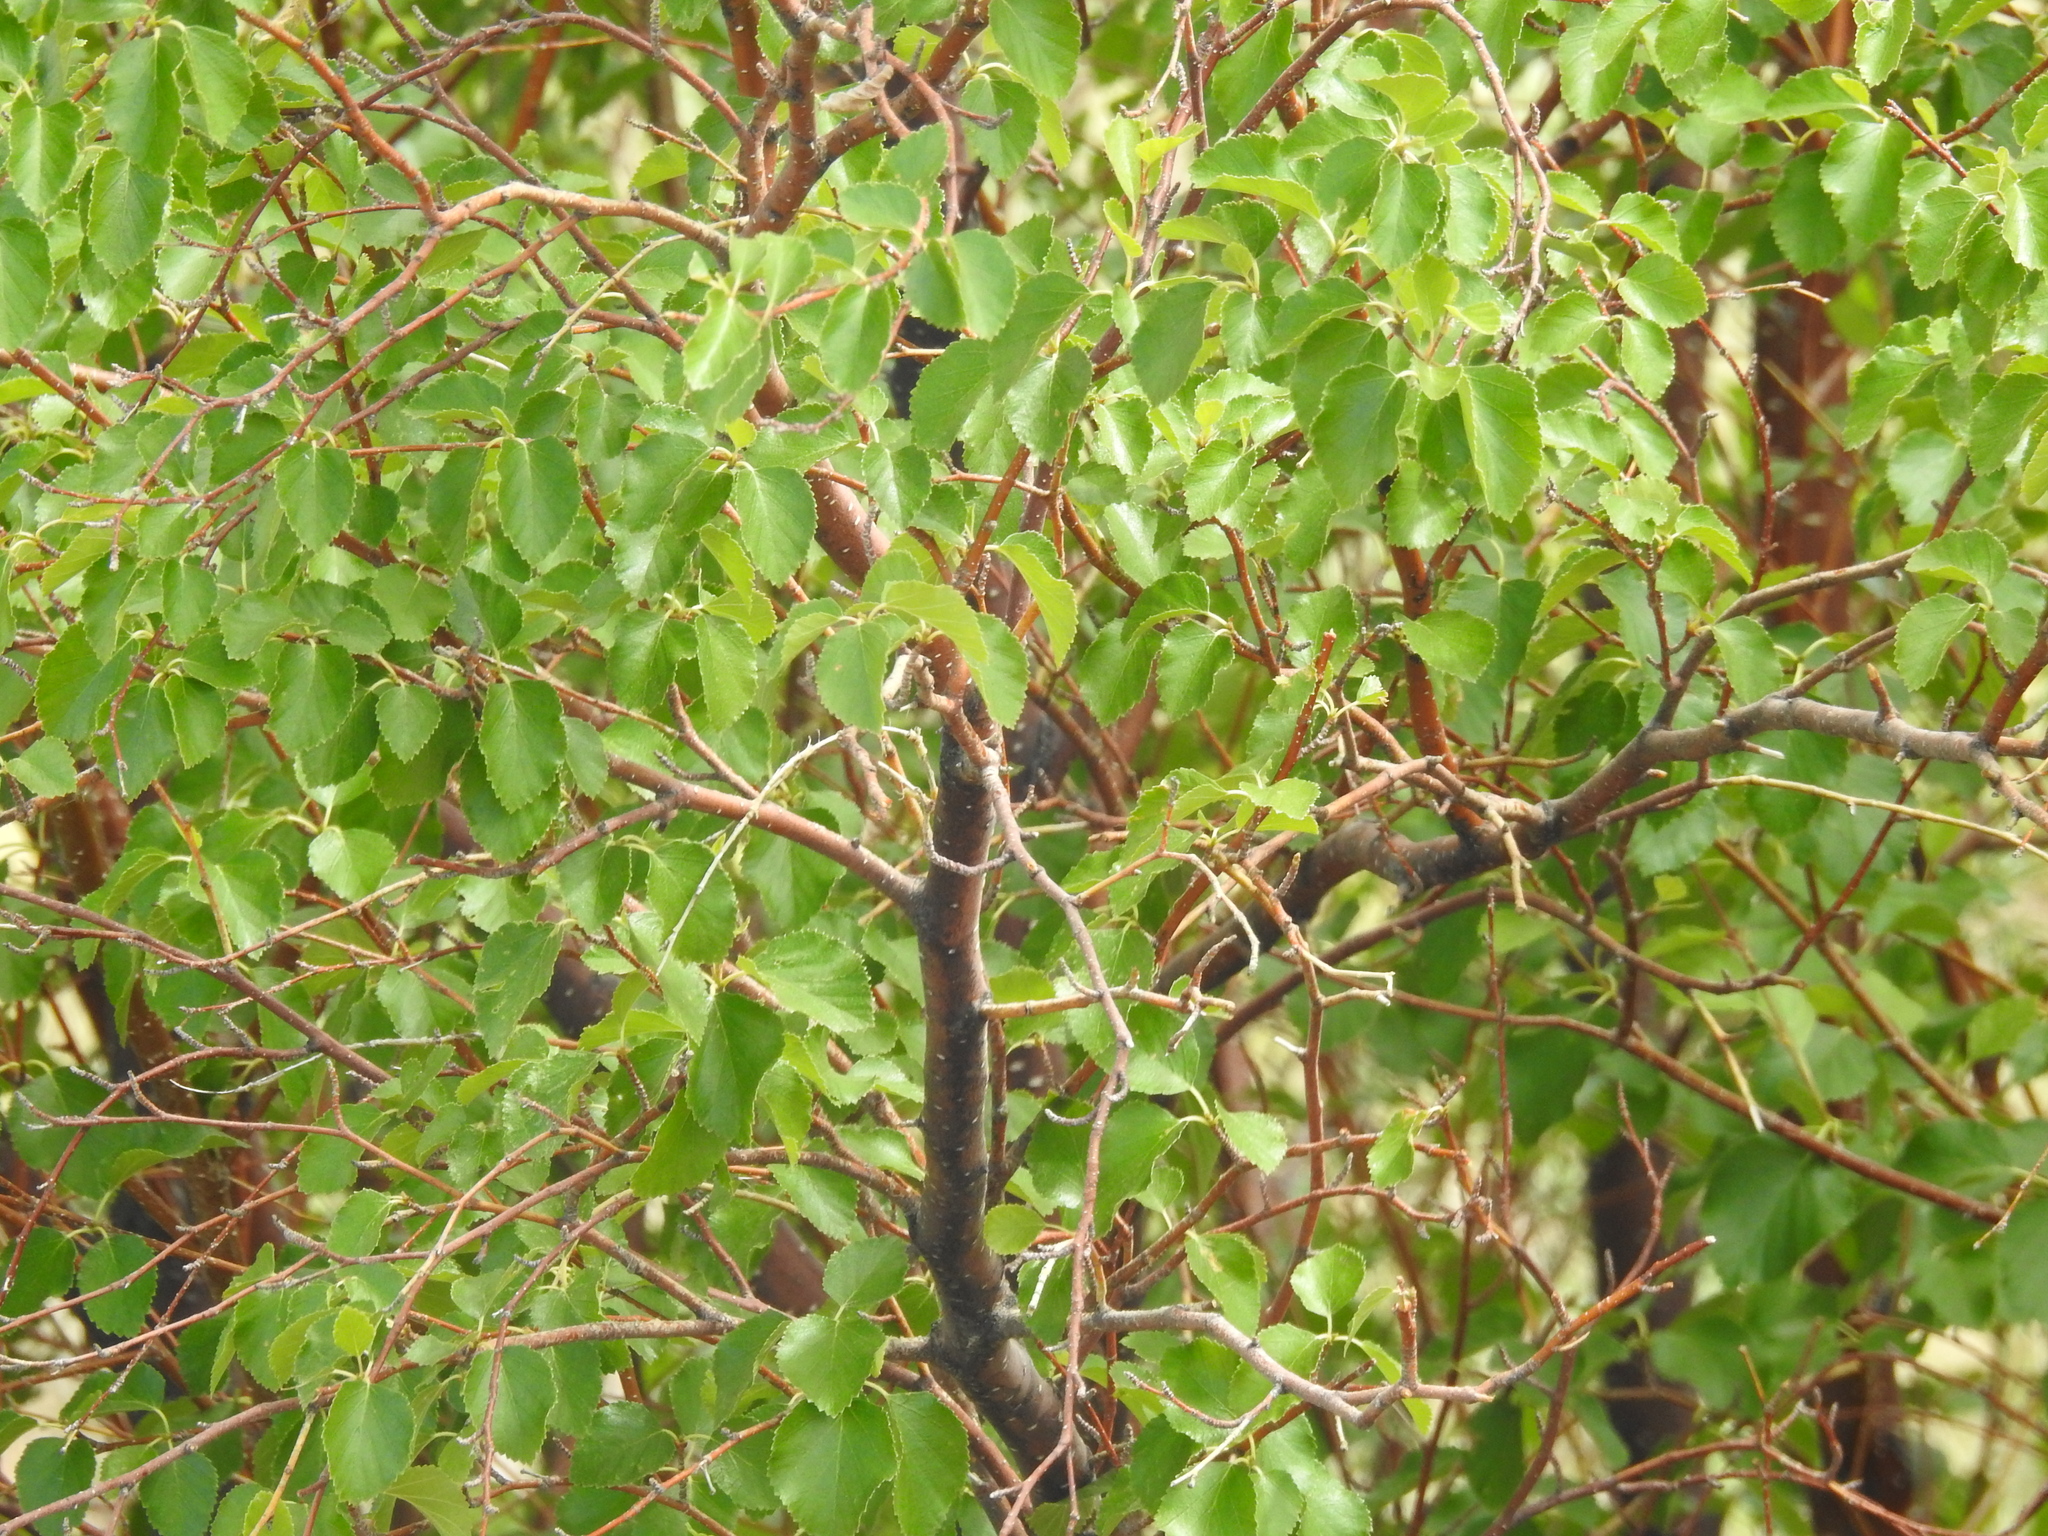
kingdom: Plantae
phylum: Tracheophyta
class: Magnoliopsida
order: Fagales
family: Betulaceae
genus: Betula
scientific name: Betula occidentalis
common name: River birch
